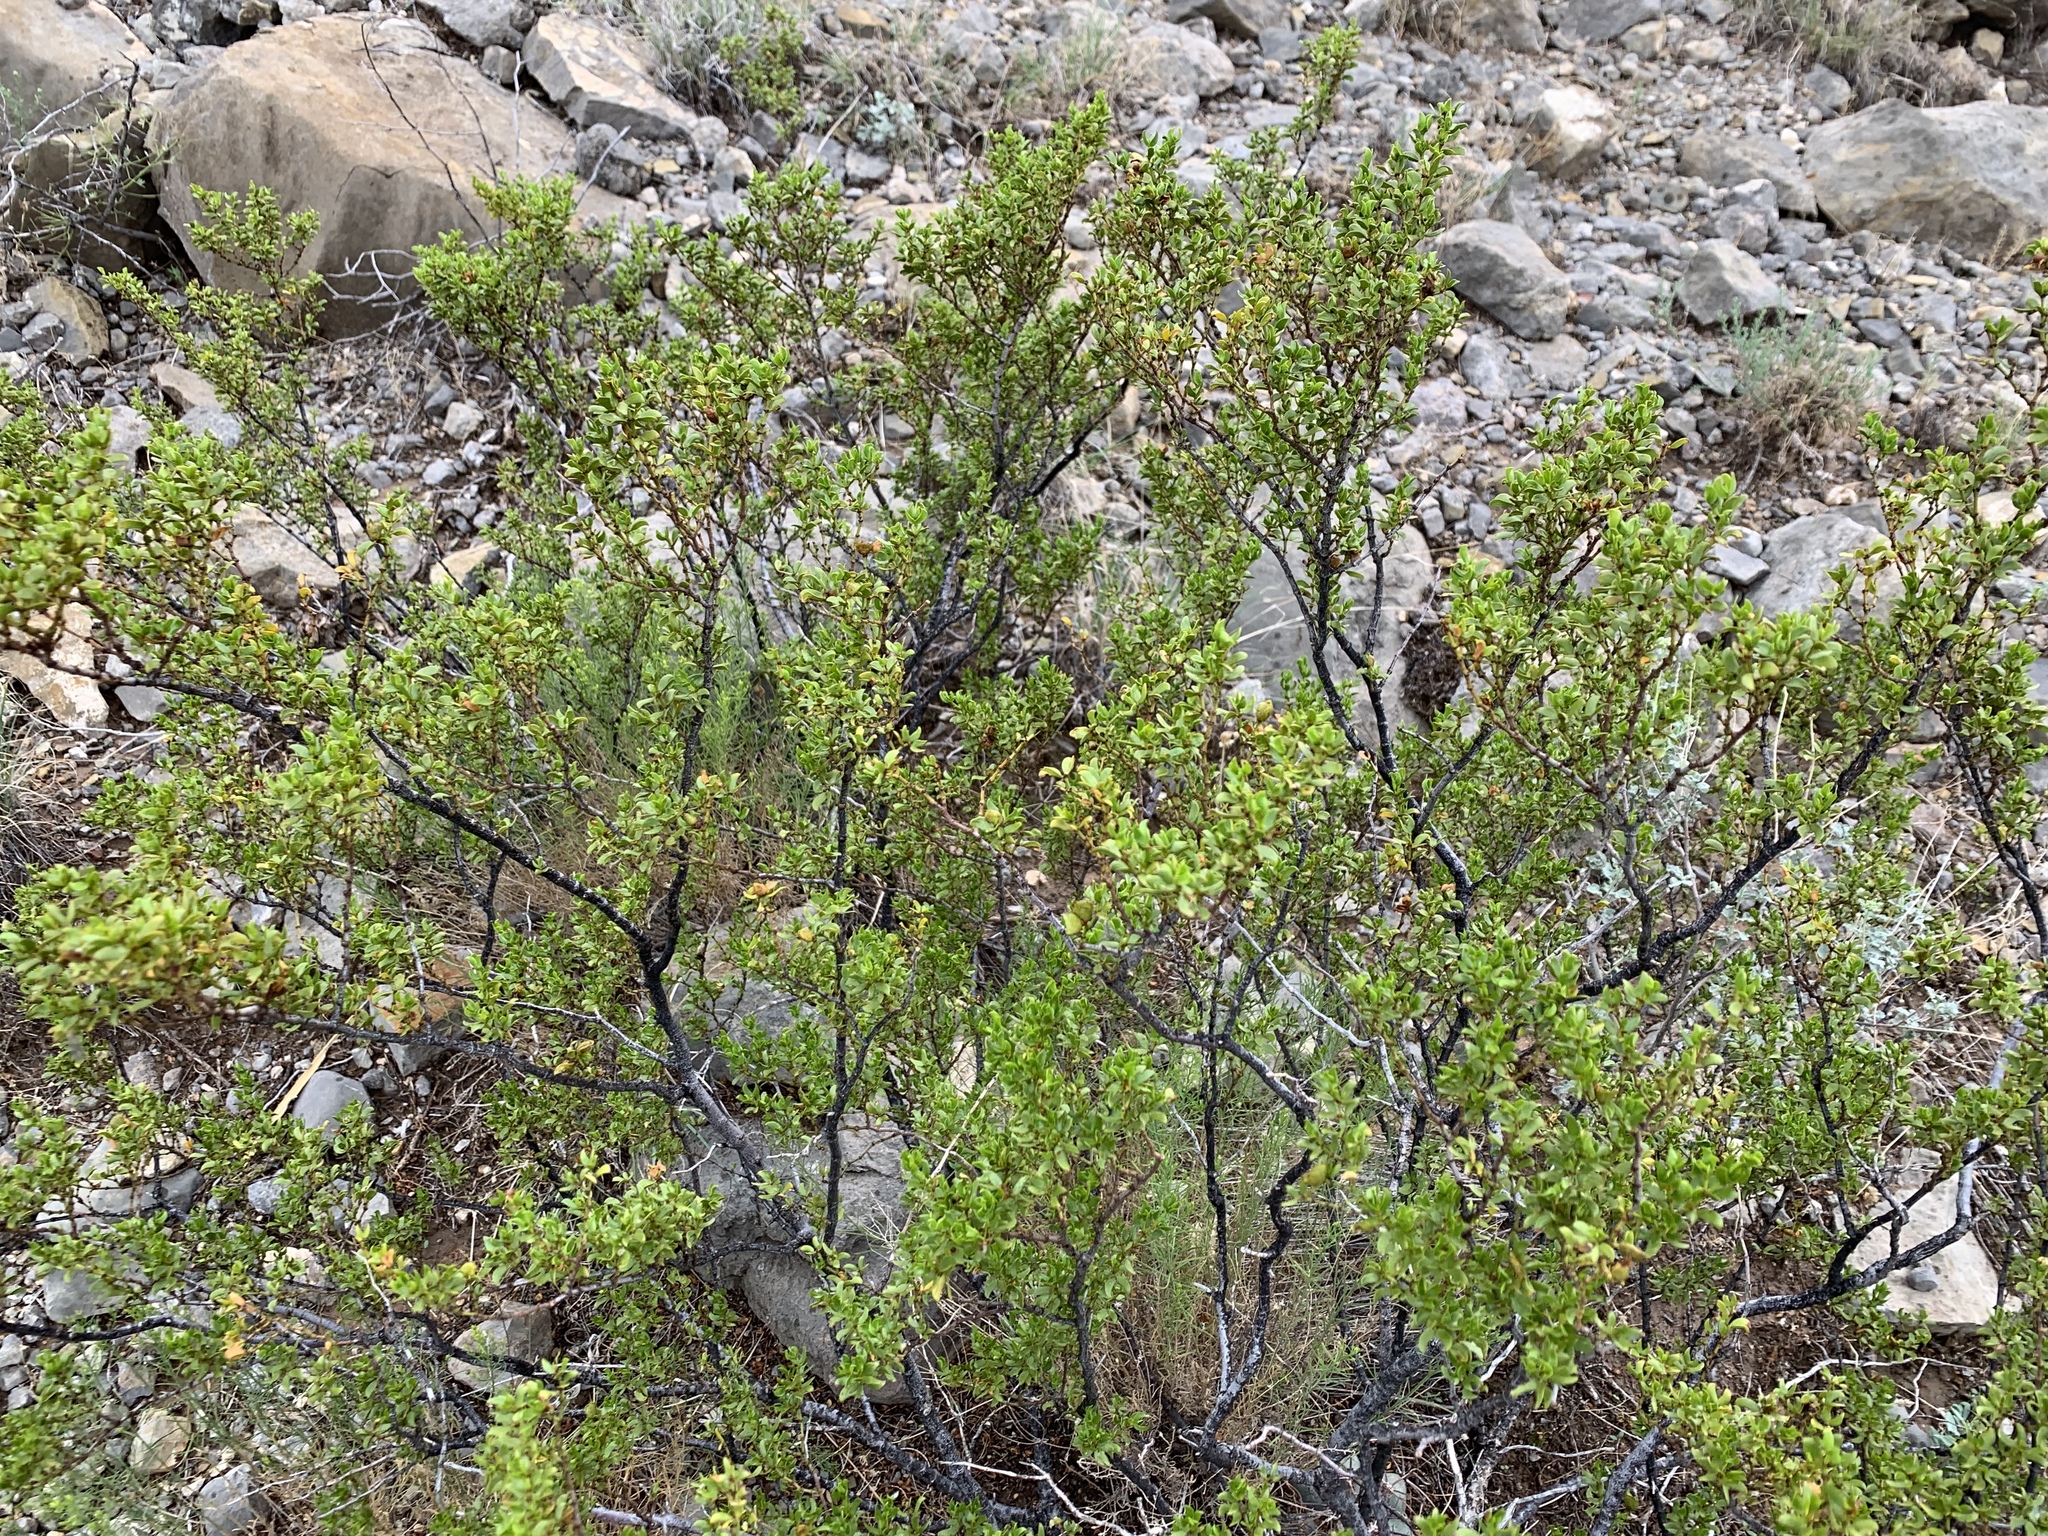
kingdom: Plantae
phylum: Tracheophyta
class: Magnoliopsida
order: Zygophyllales
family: Zygophyllaceae
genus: Larrea
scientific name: Larrea tridentata
